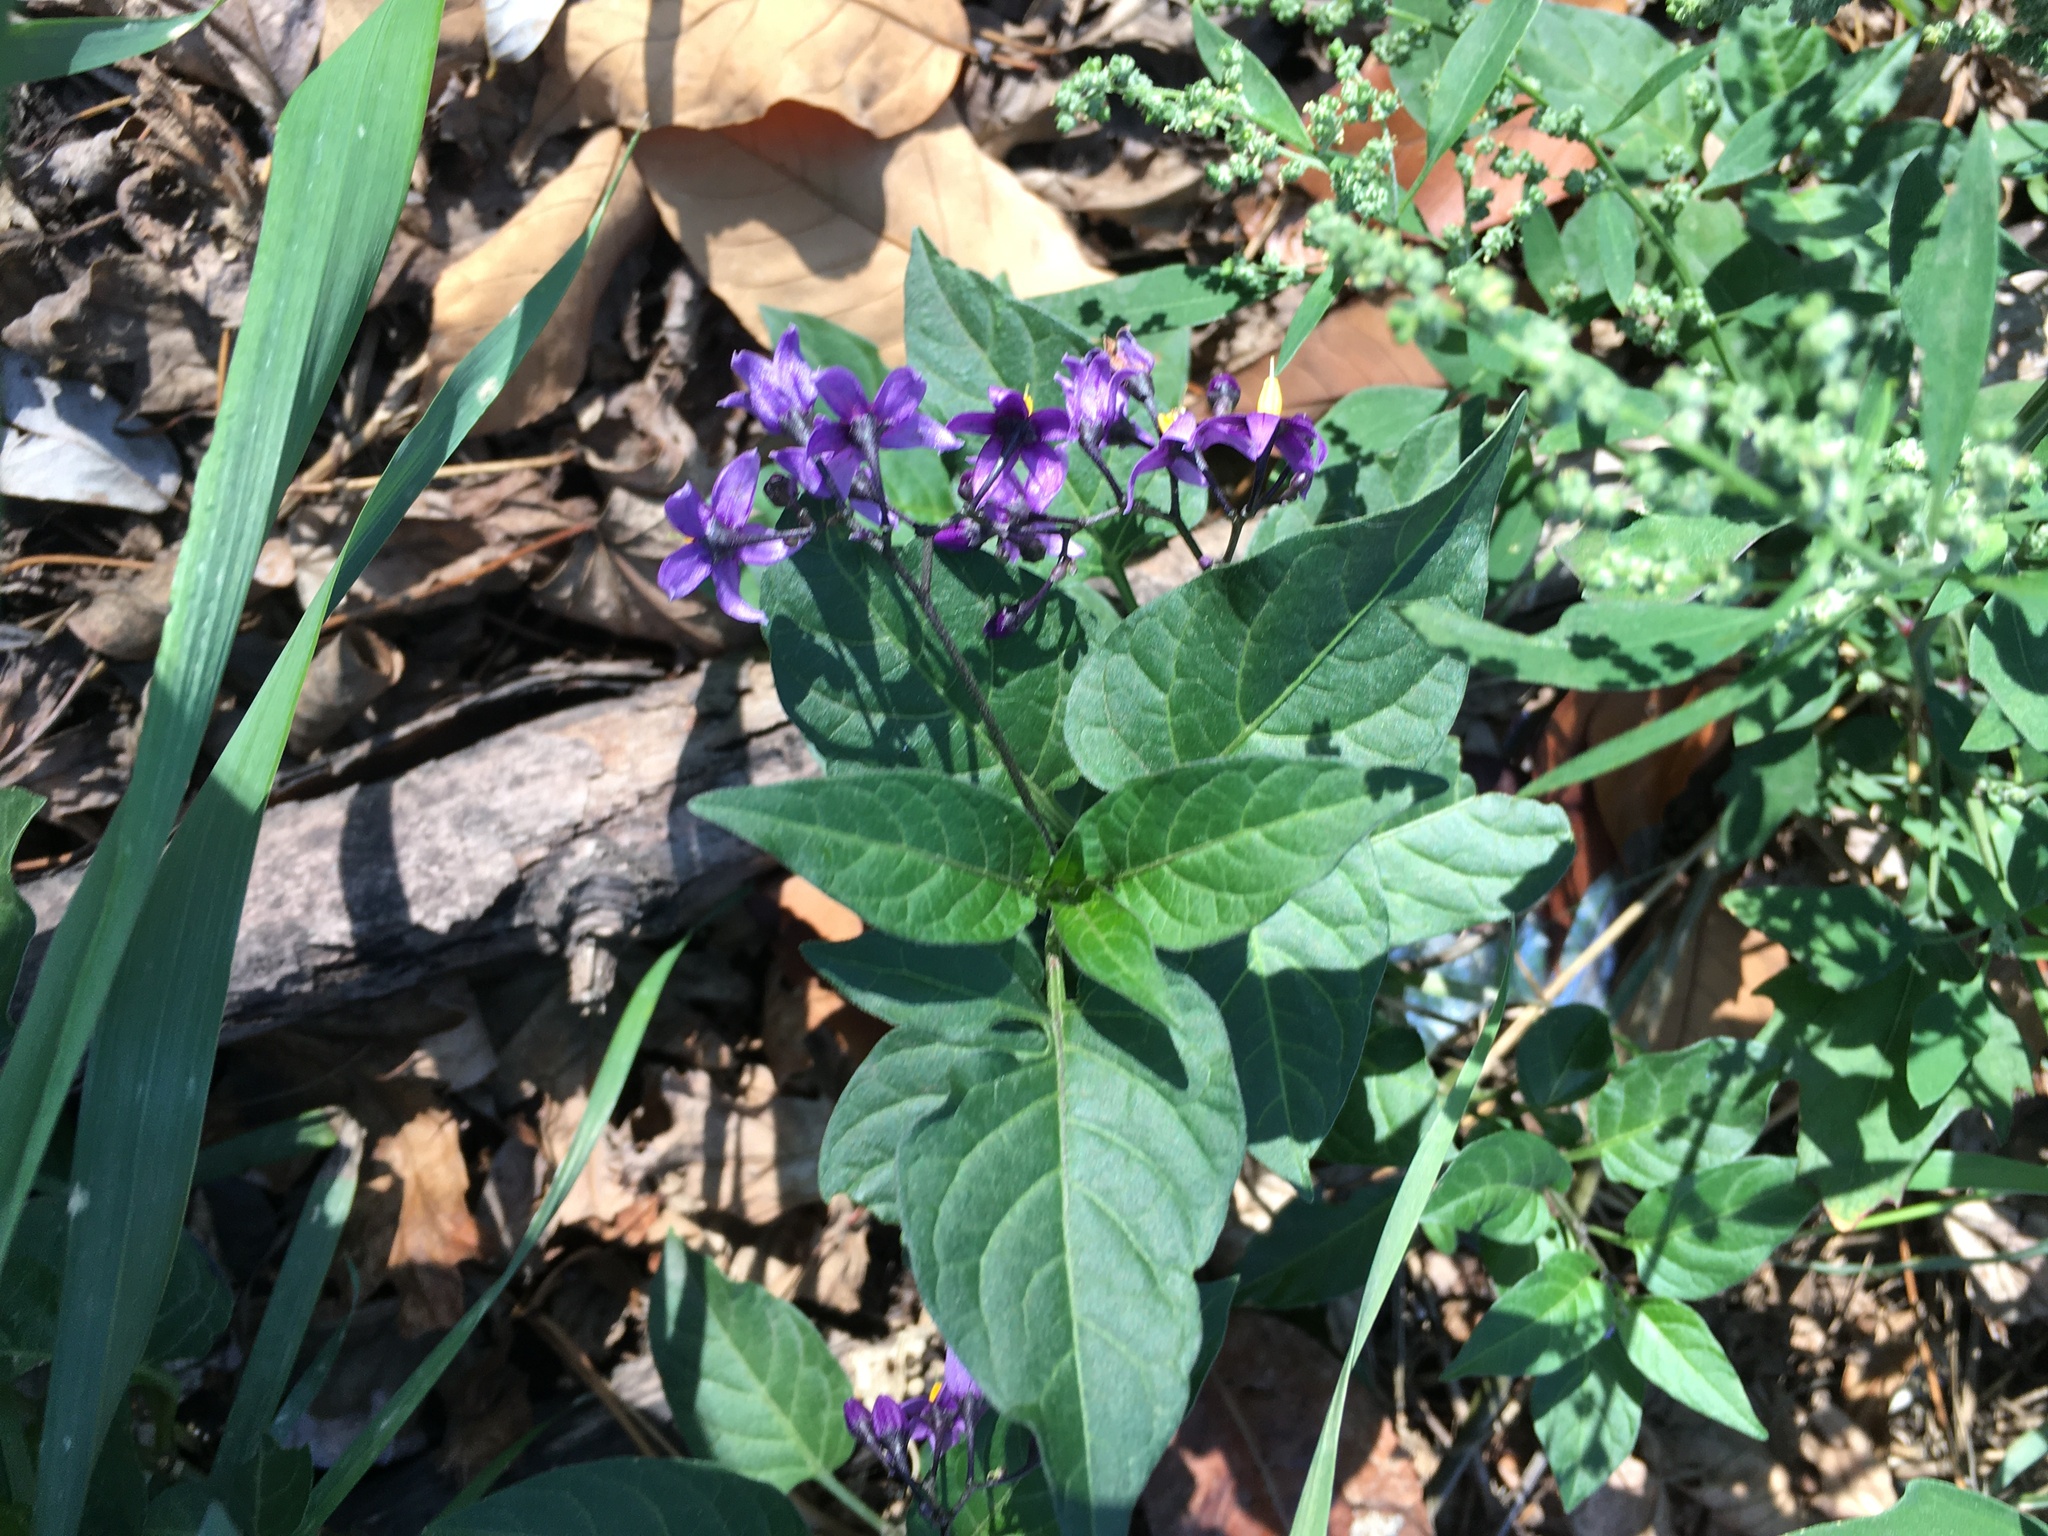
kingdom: Plantae
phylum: Tracheophyta
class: Magnoliopsida
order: Solanales
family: Solanaceae
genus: Solanum
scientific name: Solanum dulcamara
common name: Climbing nightshade
